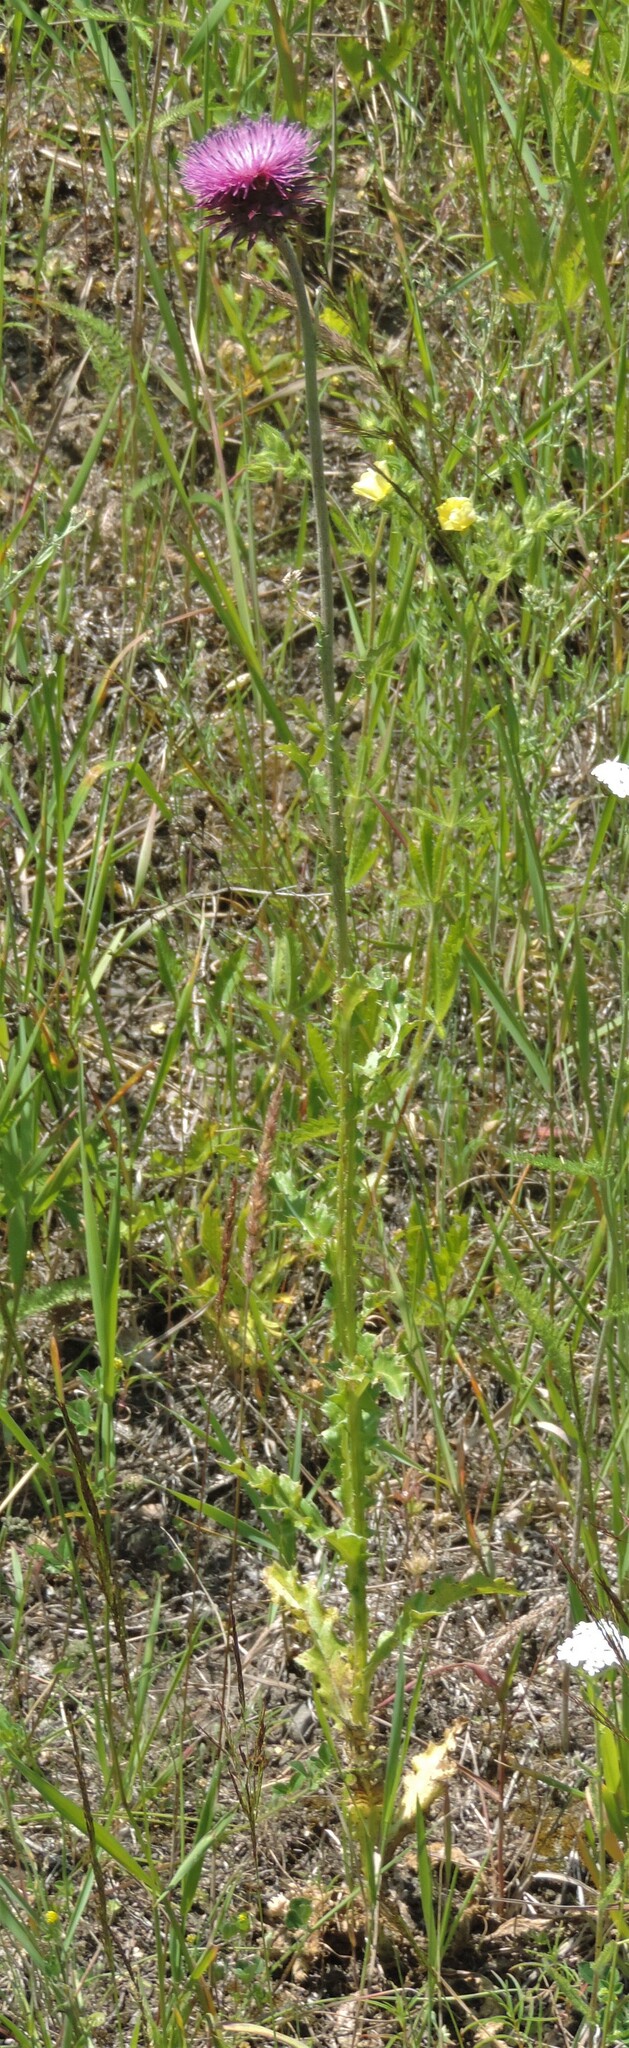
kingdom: Plantae
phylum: Tracheophyta
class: Magnoliopsida
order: Asterales
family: Asteraceae
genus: Carduus
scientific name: Carduus nutans
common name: Musk thistle
